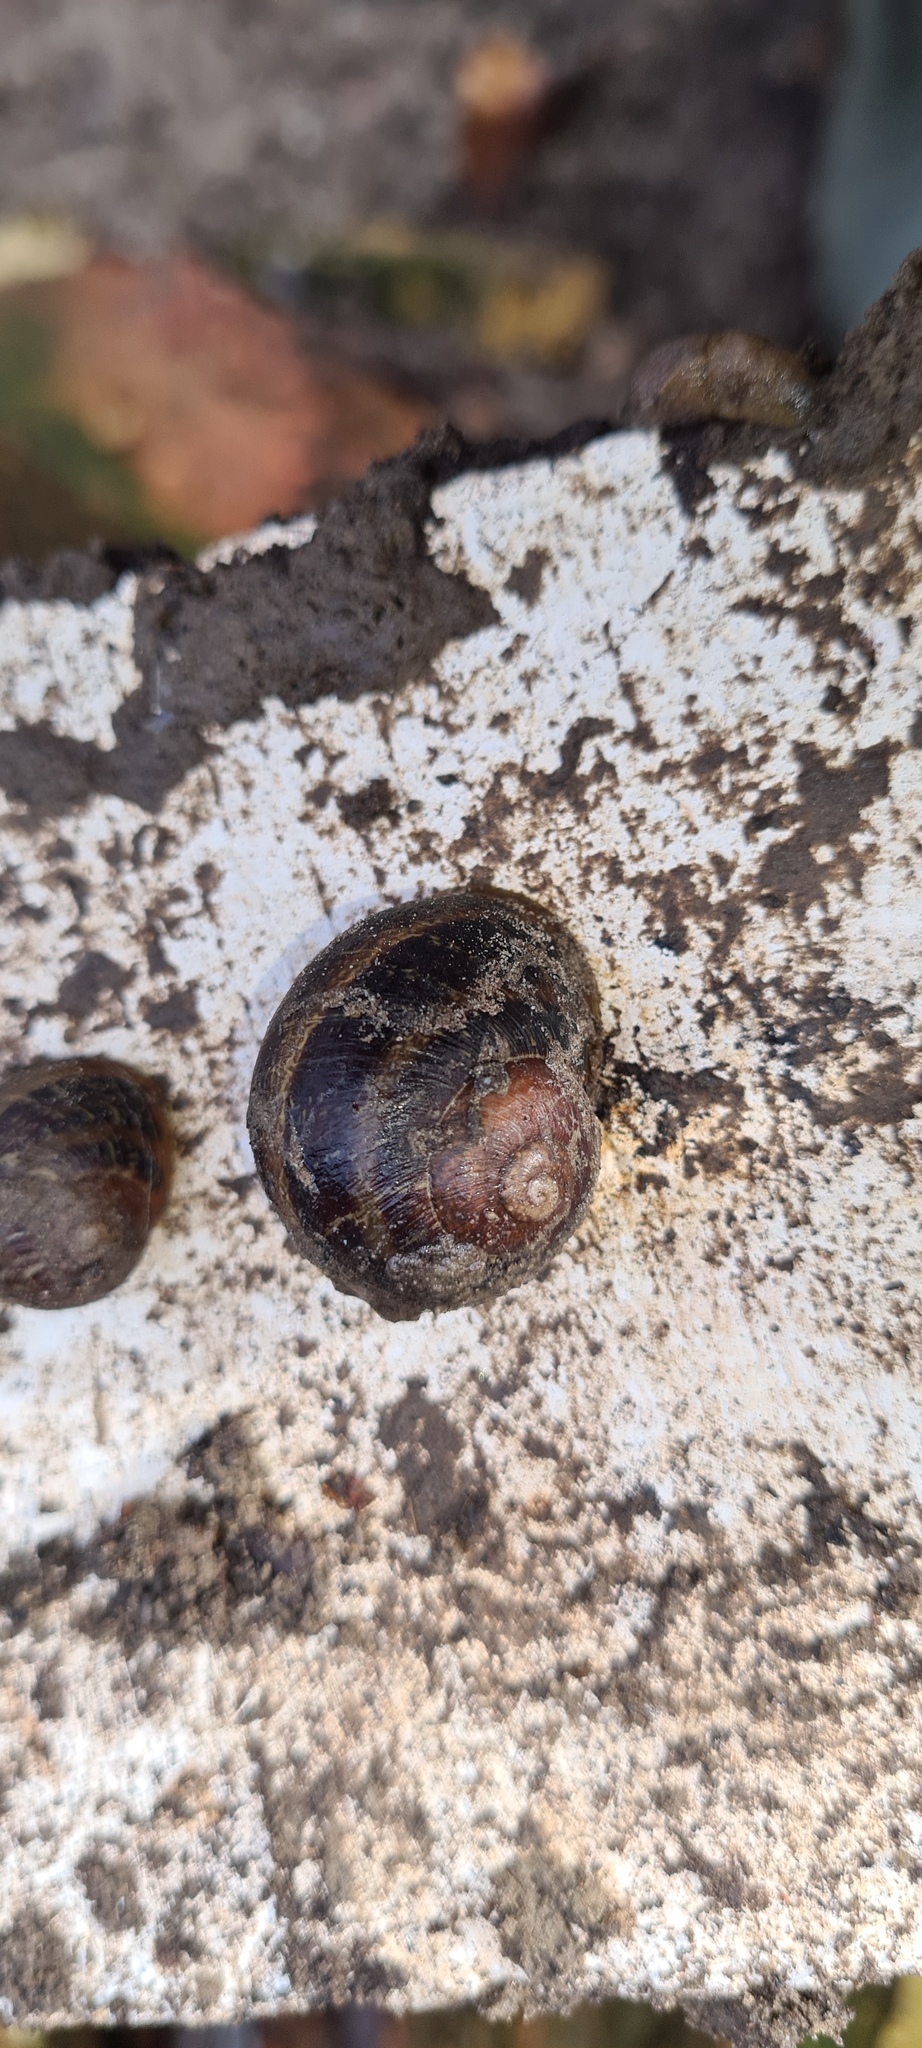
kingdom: Animalia
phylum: Mollusca
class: Gastropoda
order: Stylommatophora
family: Helicidae
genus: Cornu
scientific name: Cornu aspersum
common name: Brown garden snail
